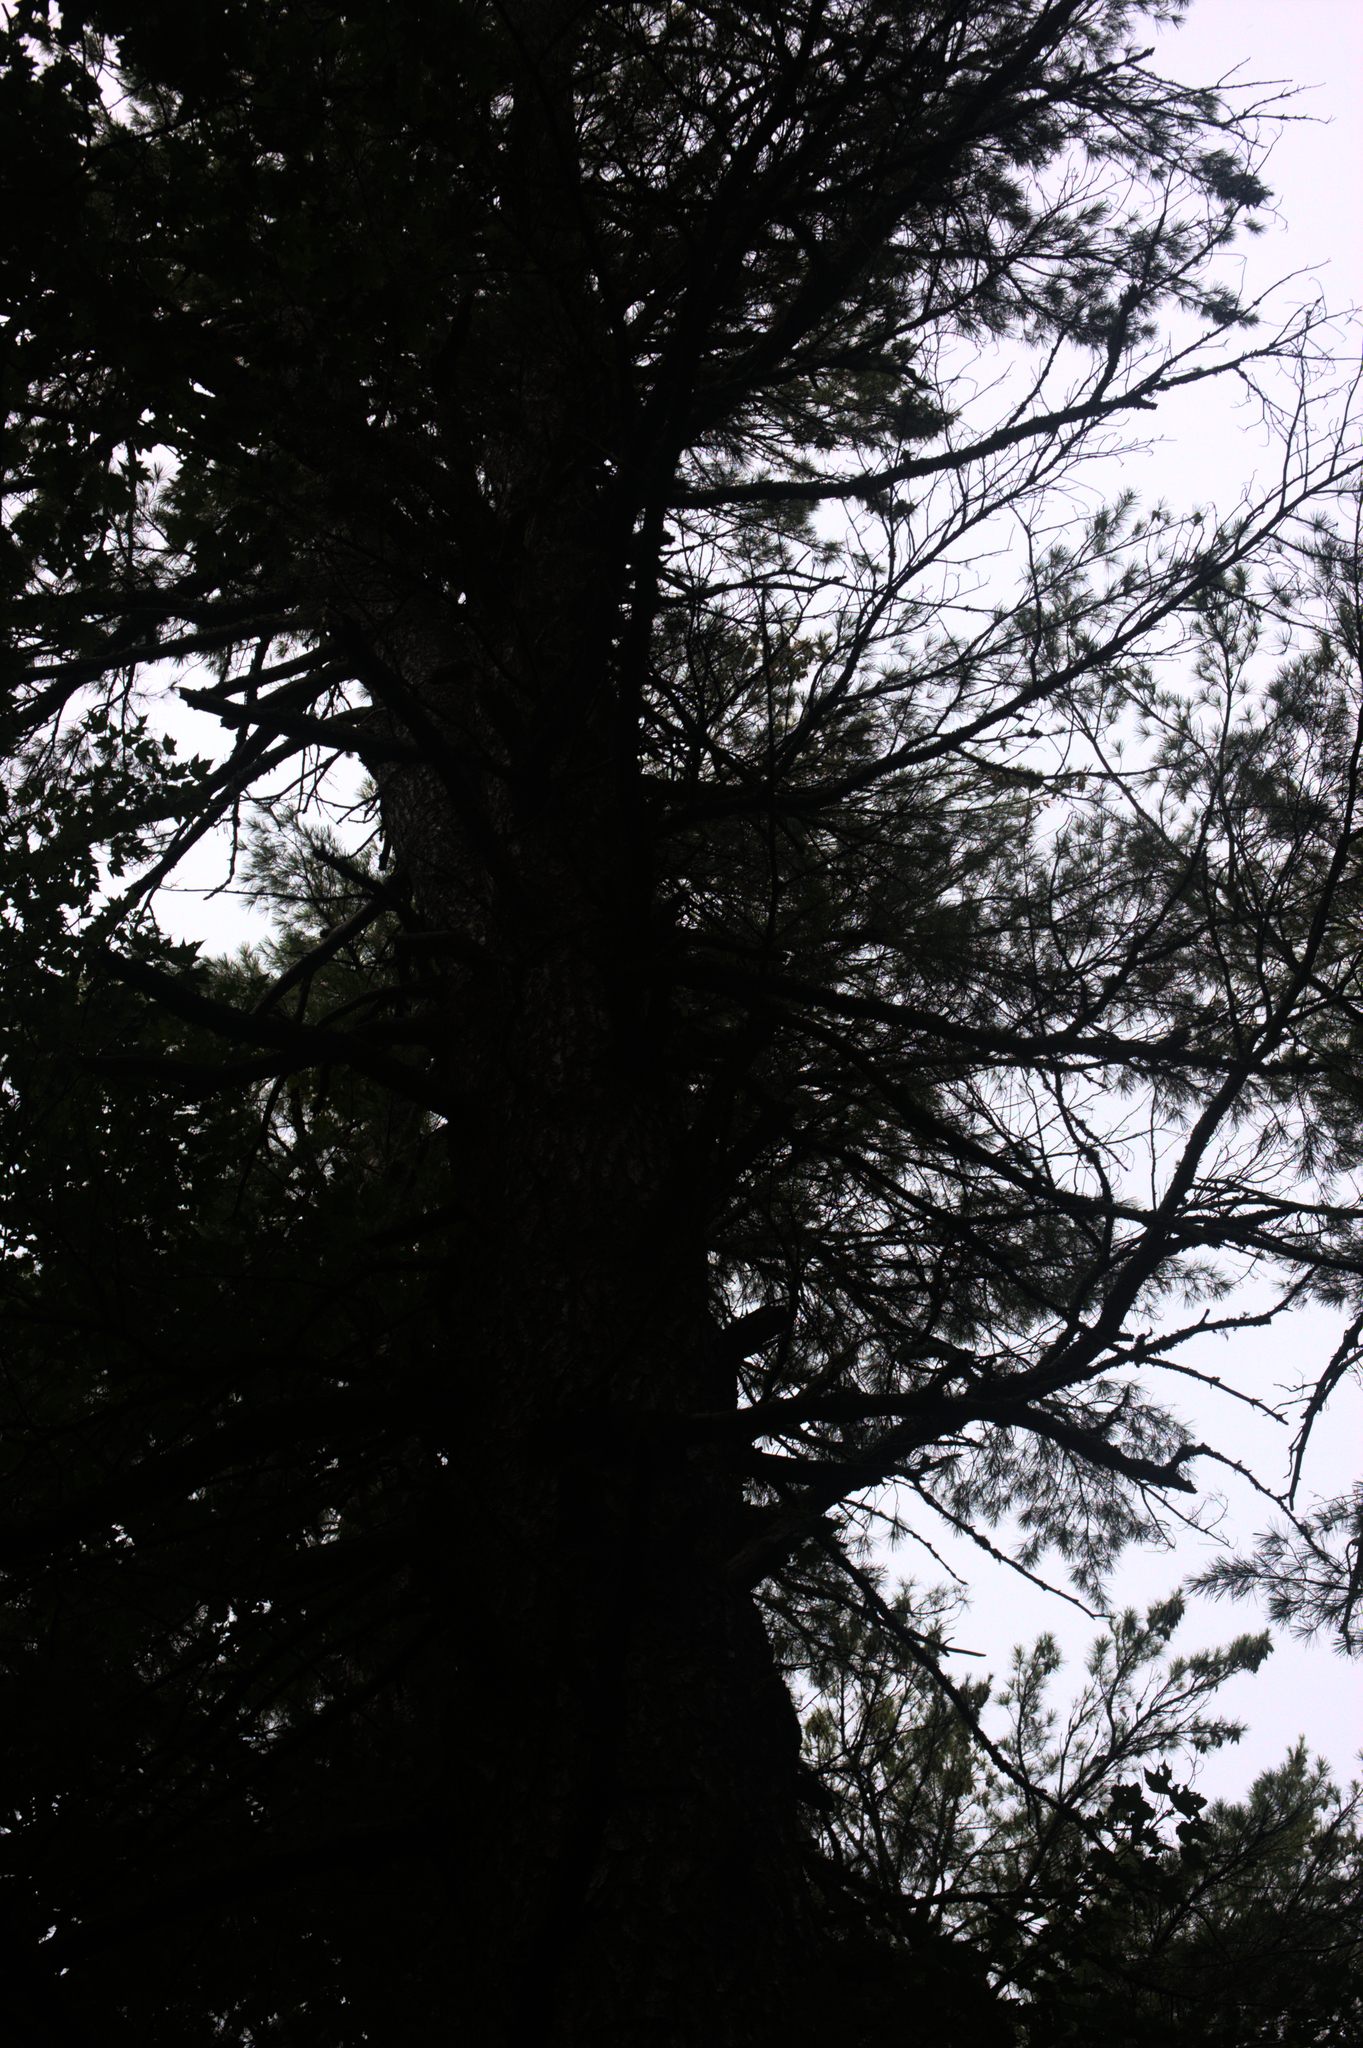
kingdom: Plantae
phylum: Tracheophyta
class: Pinopsida
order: Pinales
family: Pinaceae
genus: Pinus
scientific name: Pinus strobus
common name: Weymouth pine
